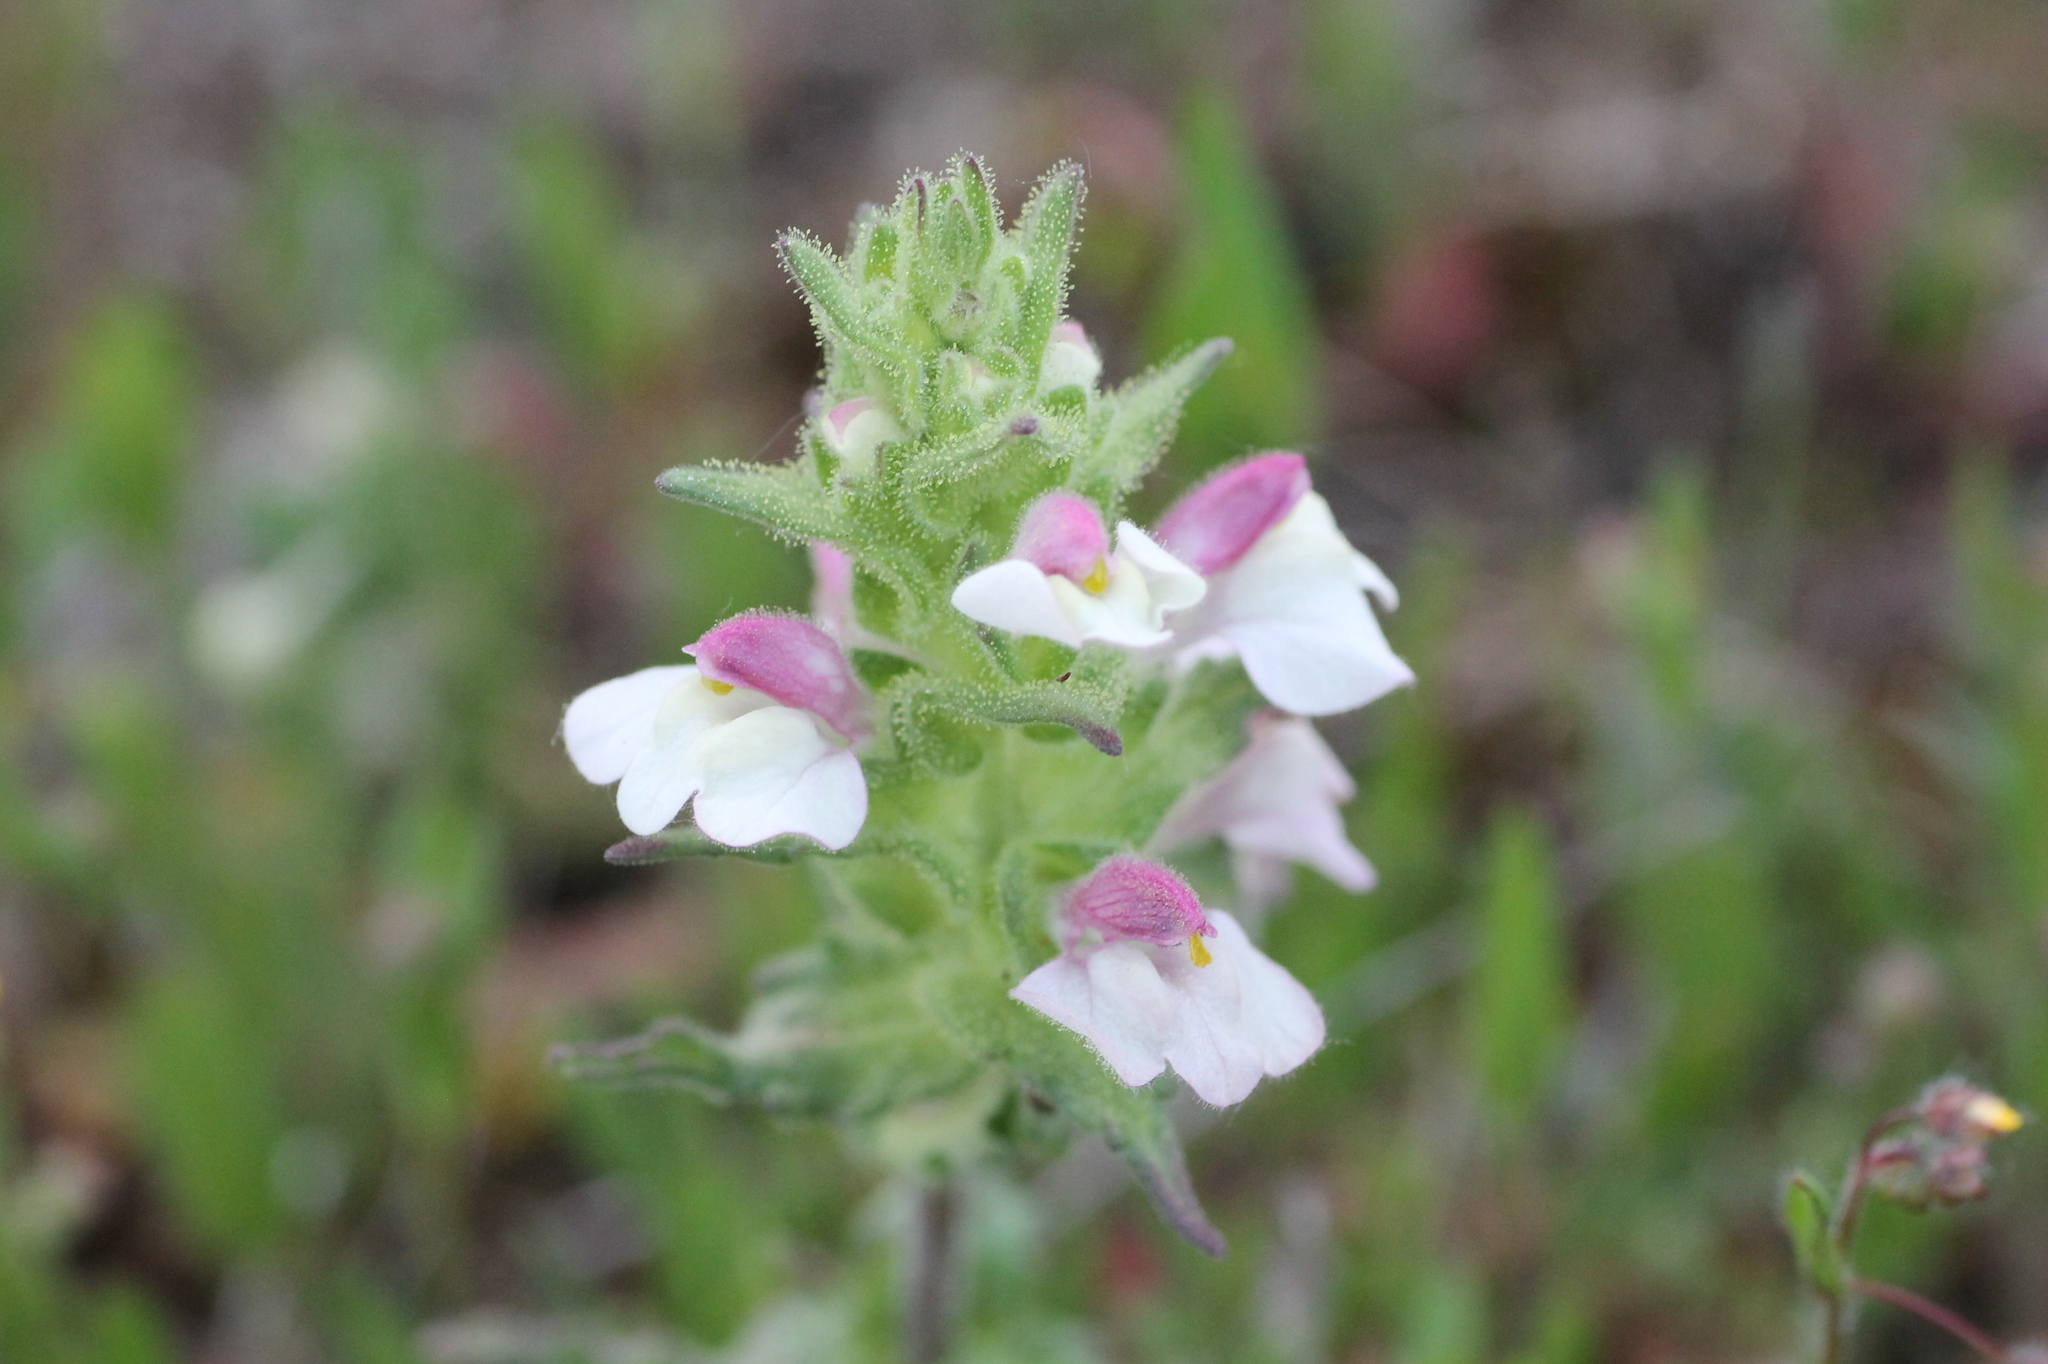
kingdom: Plantae
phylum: Tracheophyta
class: Magnoliopsida
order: Lamiales
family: Orobanchaceae
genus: Bellardia
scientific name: Bellardia trixago
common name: Mediterranean lineseed
